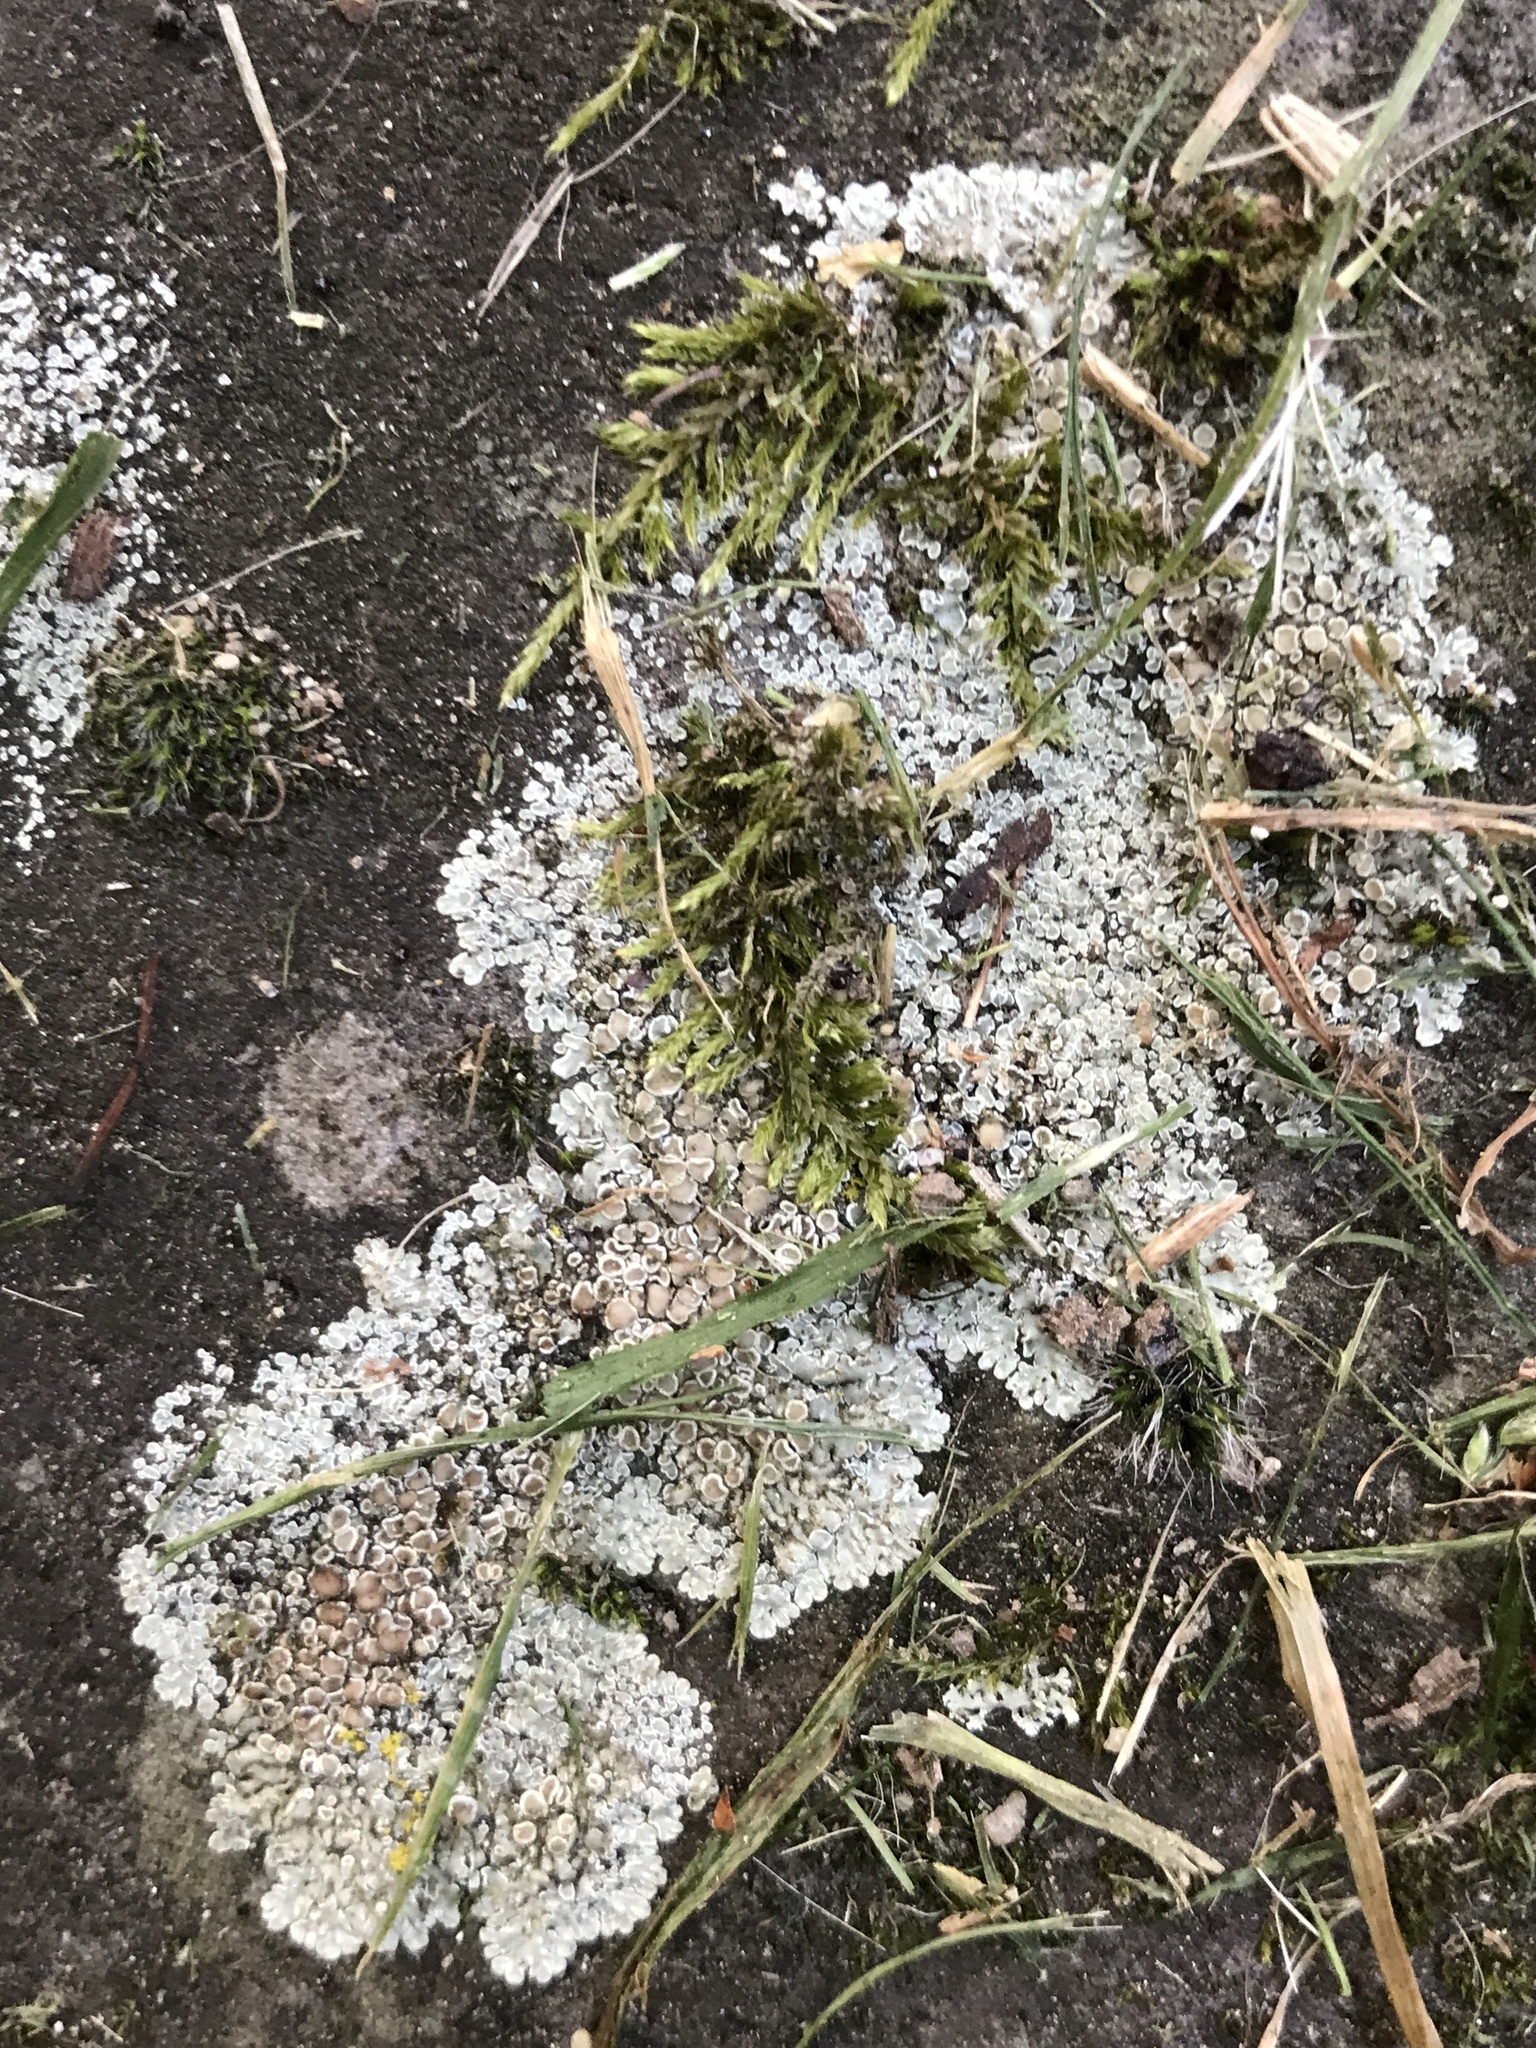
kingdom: Fungi
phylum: Ascomycota
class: Lecanoromycetes
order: Lecanorales
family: Lecanoraceae
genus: Protoparmeliopsis
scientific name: Protoparmeliopsis muralis
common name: Stonewall rim lichen
